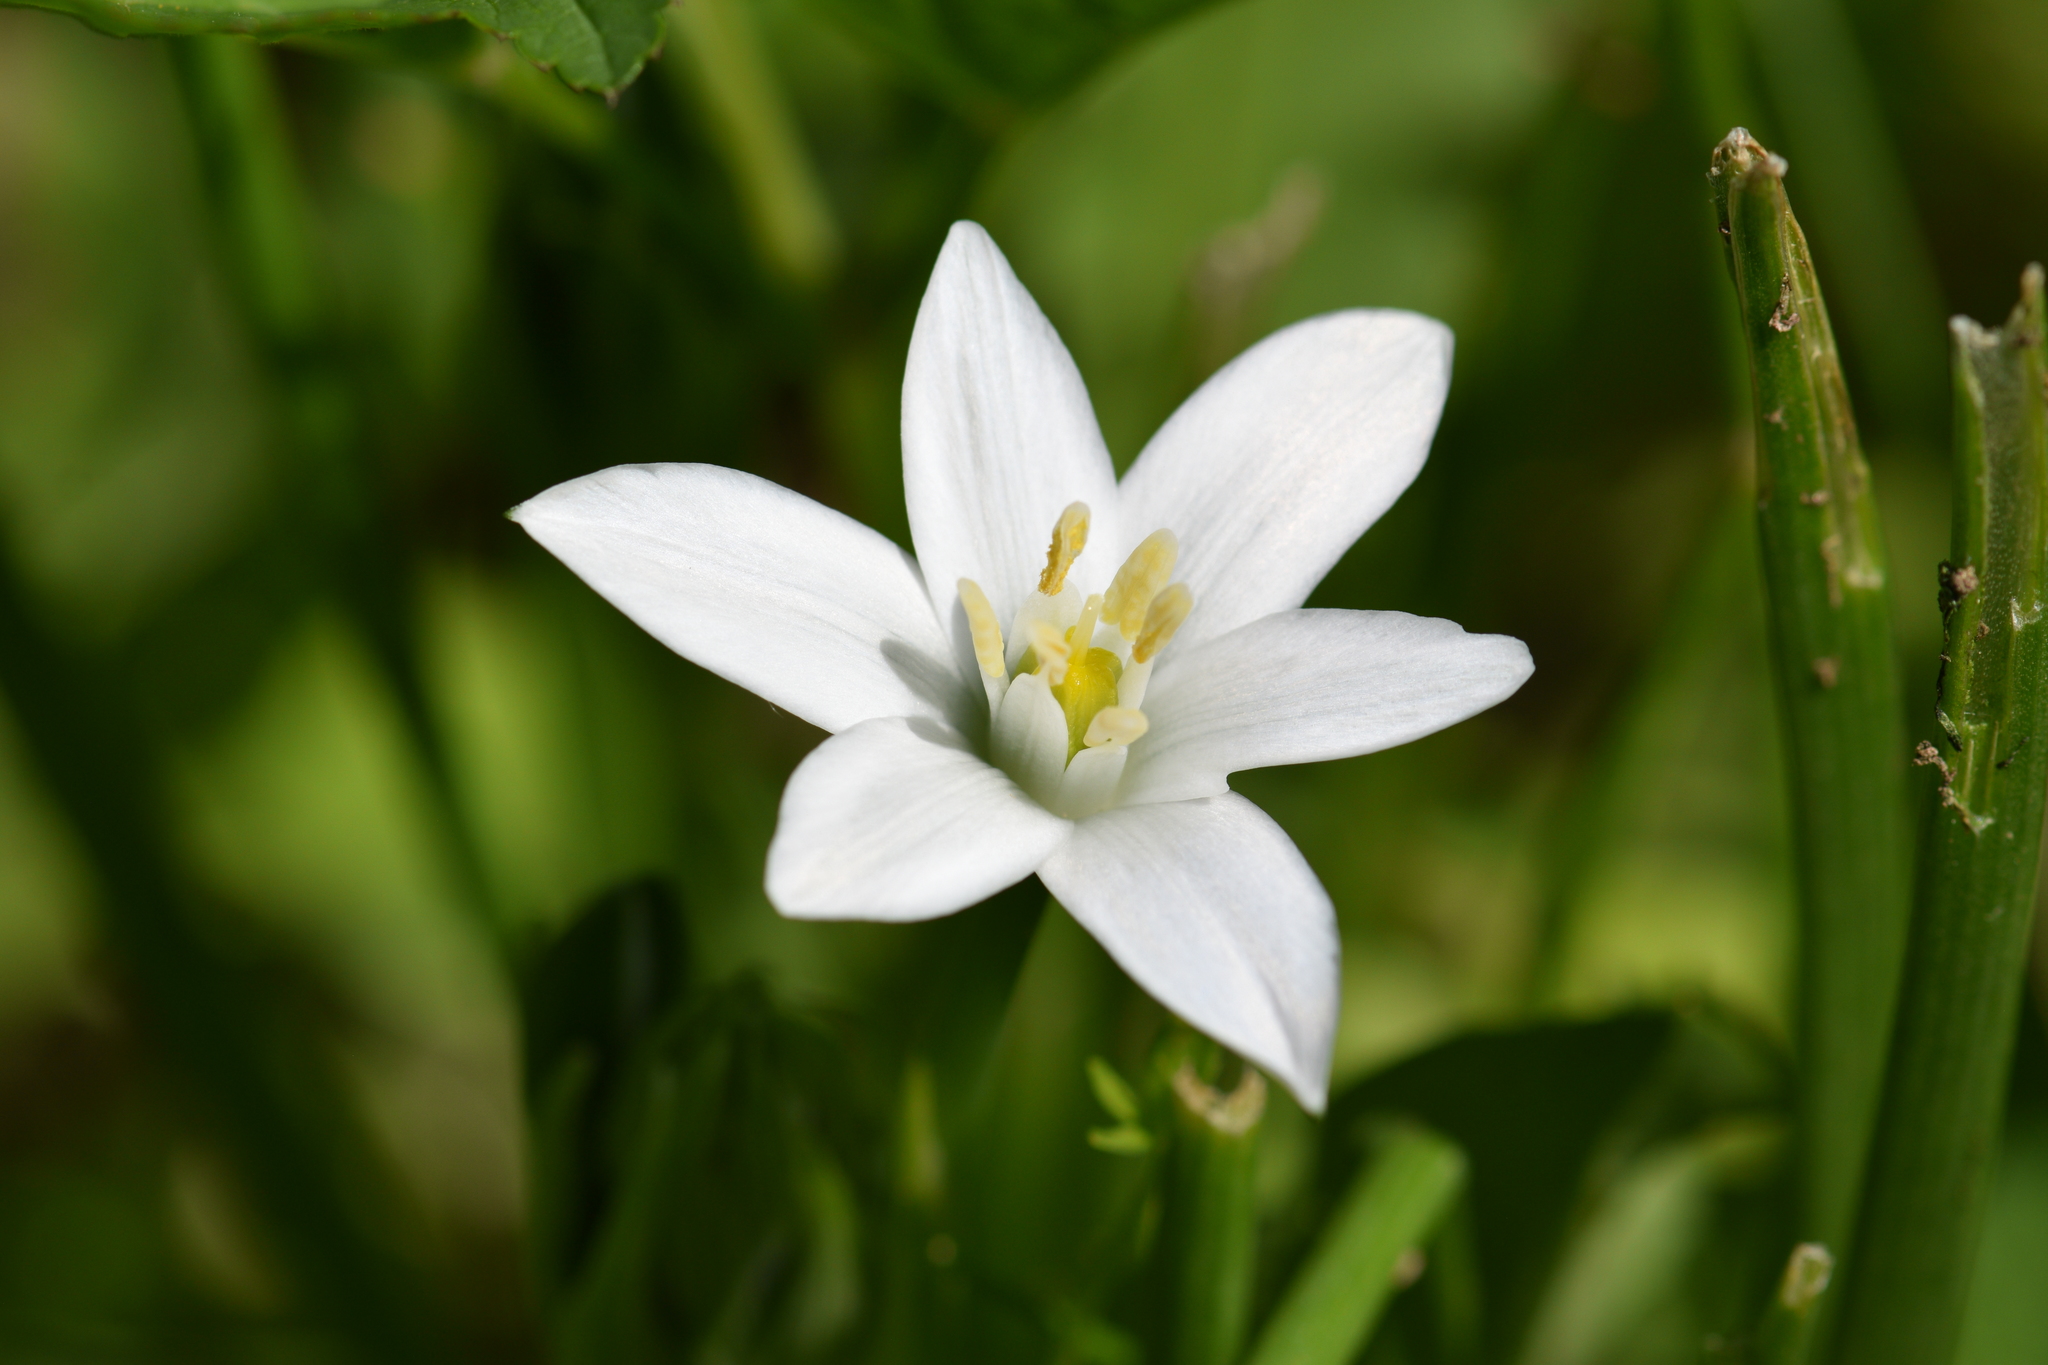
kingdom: Plantae
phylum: Tracheophyta
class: Liliopsida
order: Asparagales
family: Asparagaceae
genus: Ornithogalum
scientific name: Ornithogalum umbellatum
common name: Garden star-of-bethlehem
